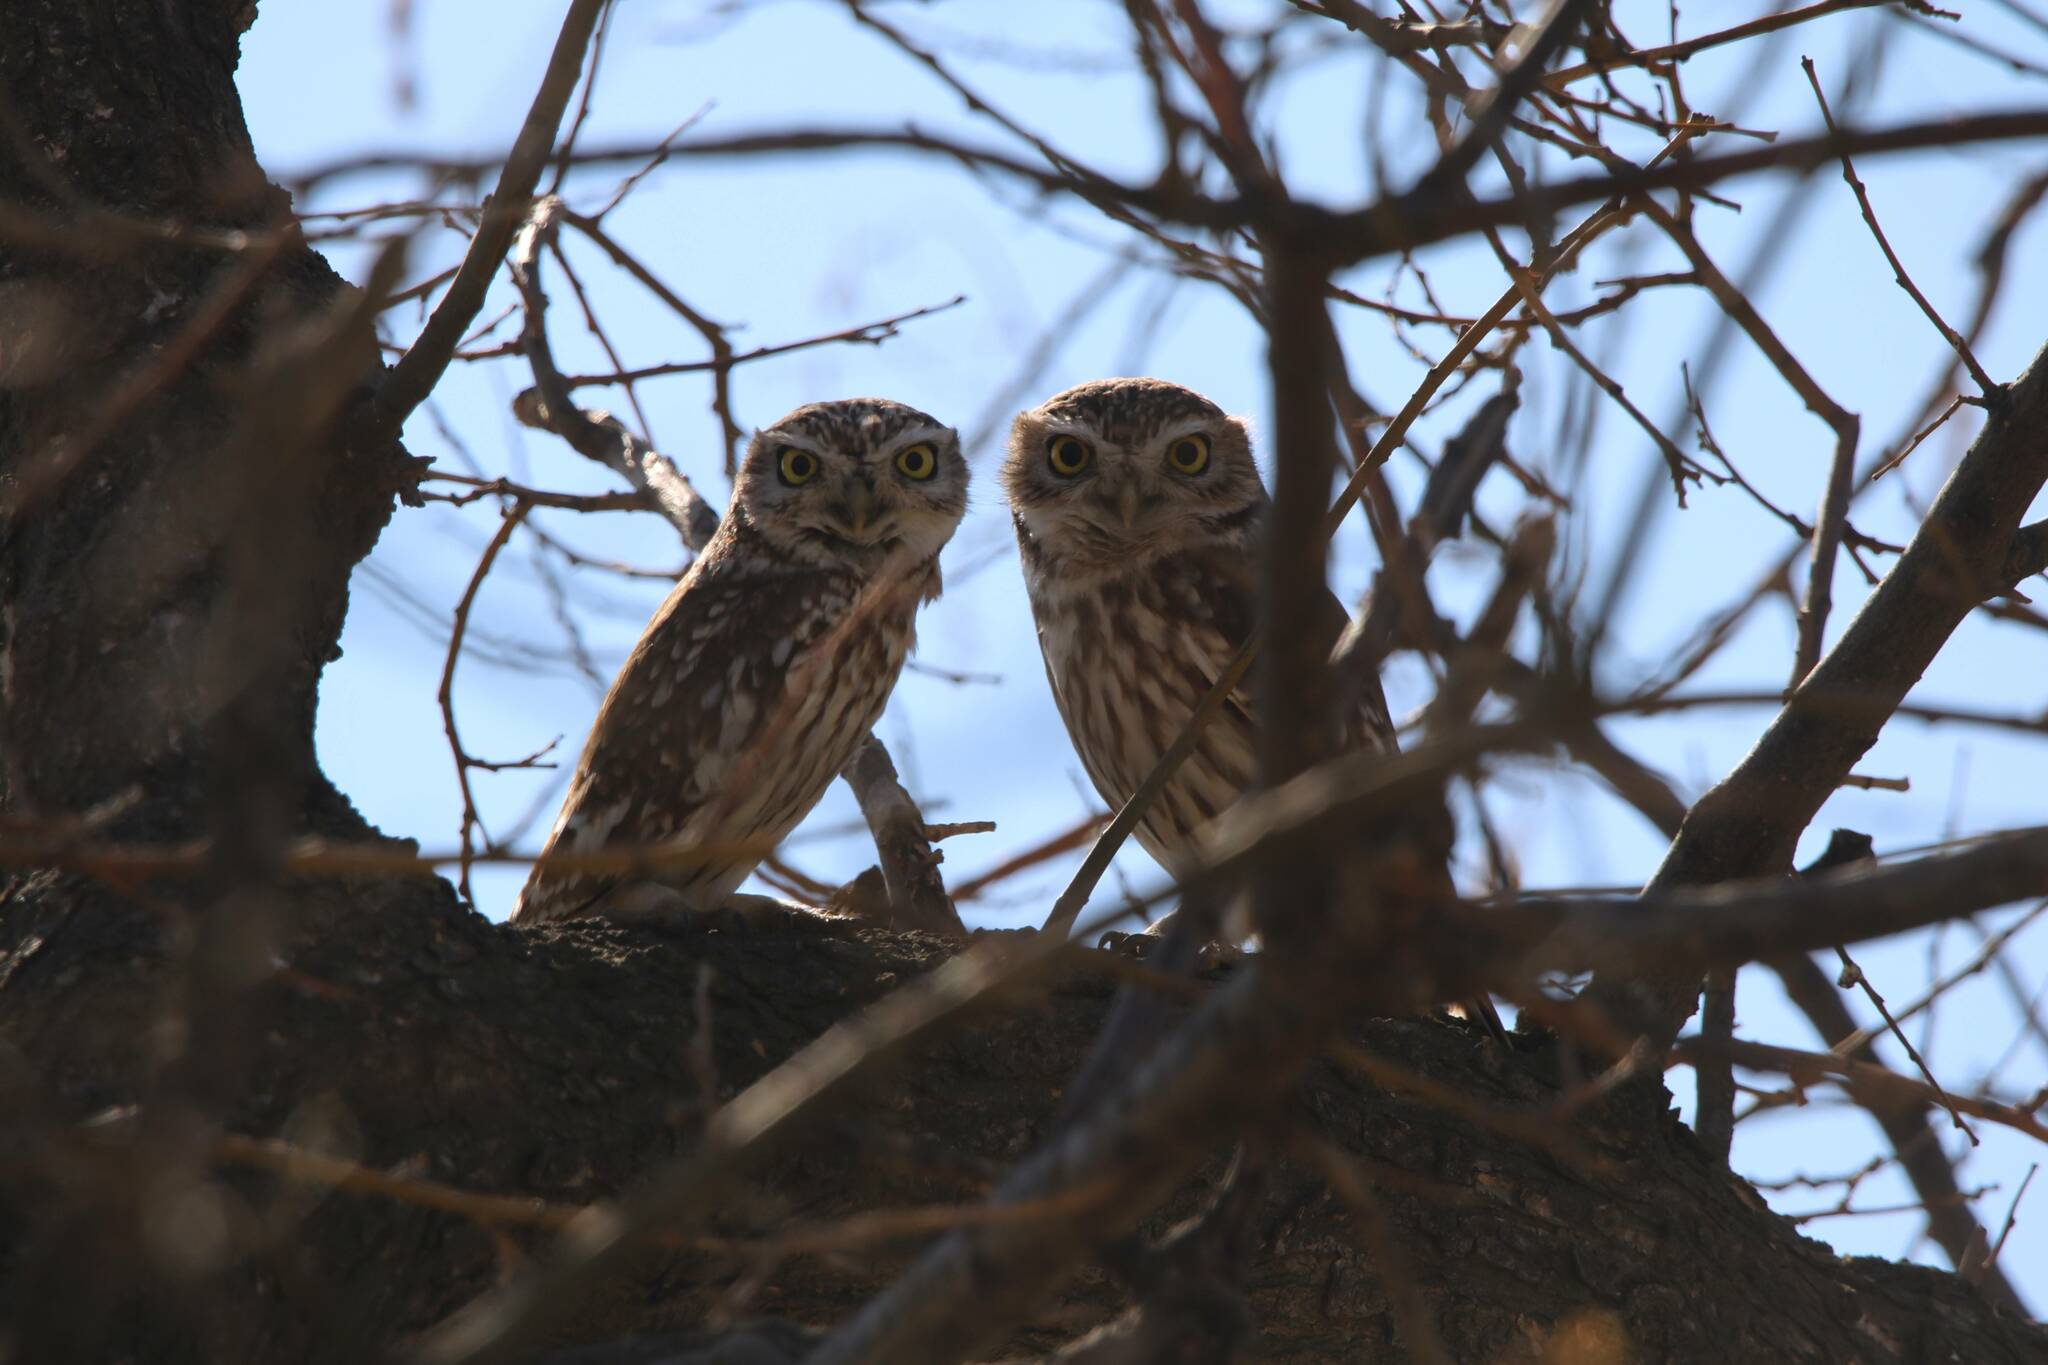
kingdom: Animalia
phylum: Chordata
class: Aves
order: Strigiformes
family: Strigidae
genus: Athene
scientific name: Athene noctua
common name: Little owl
